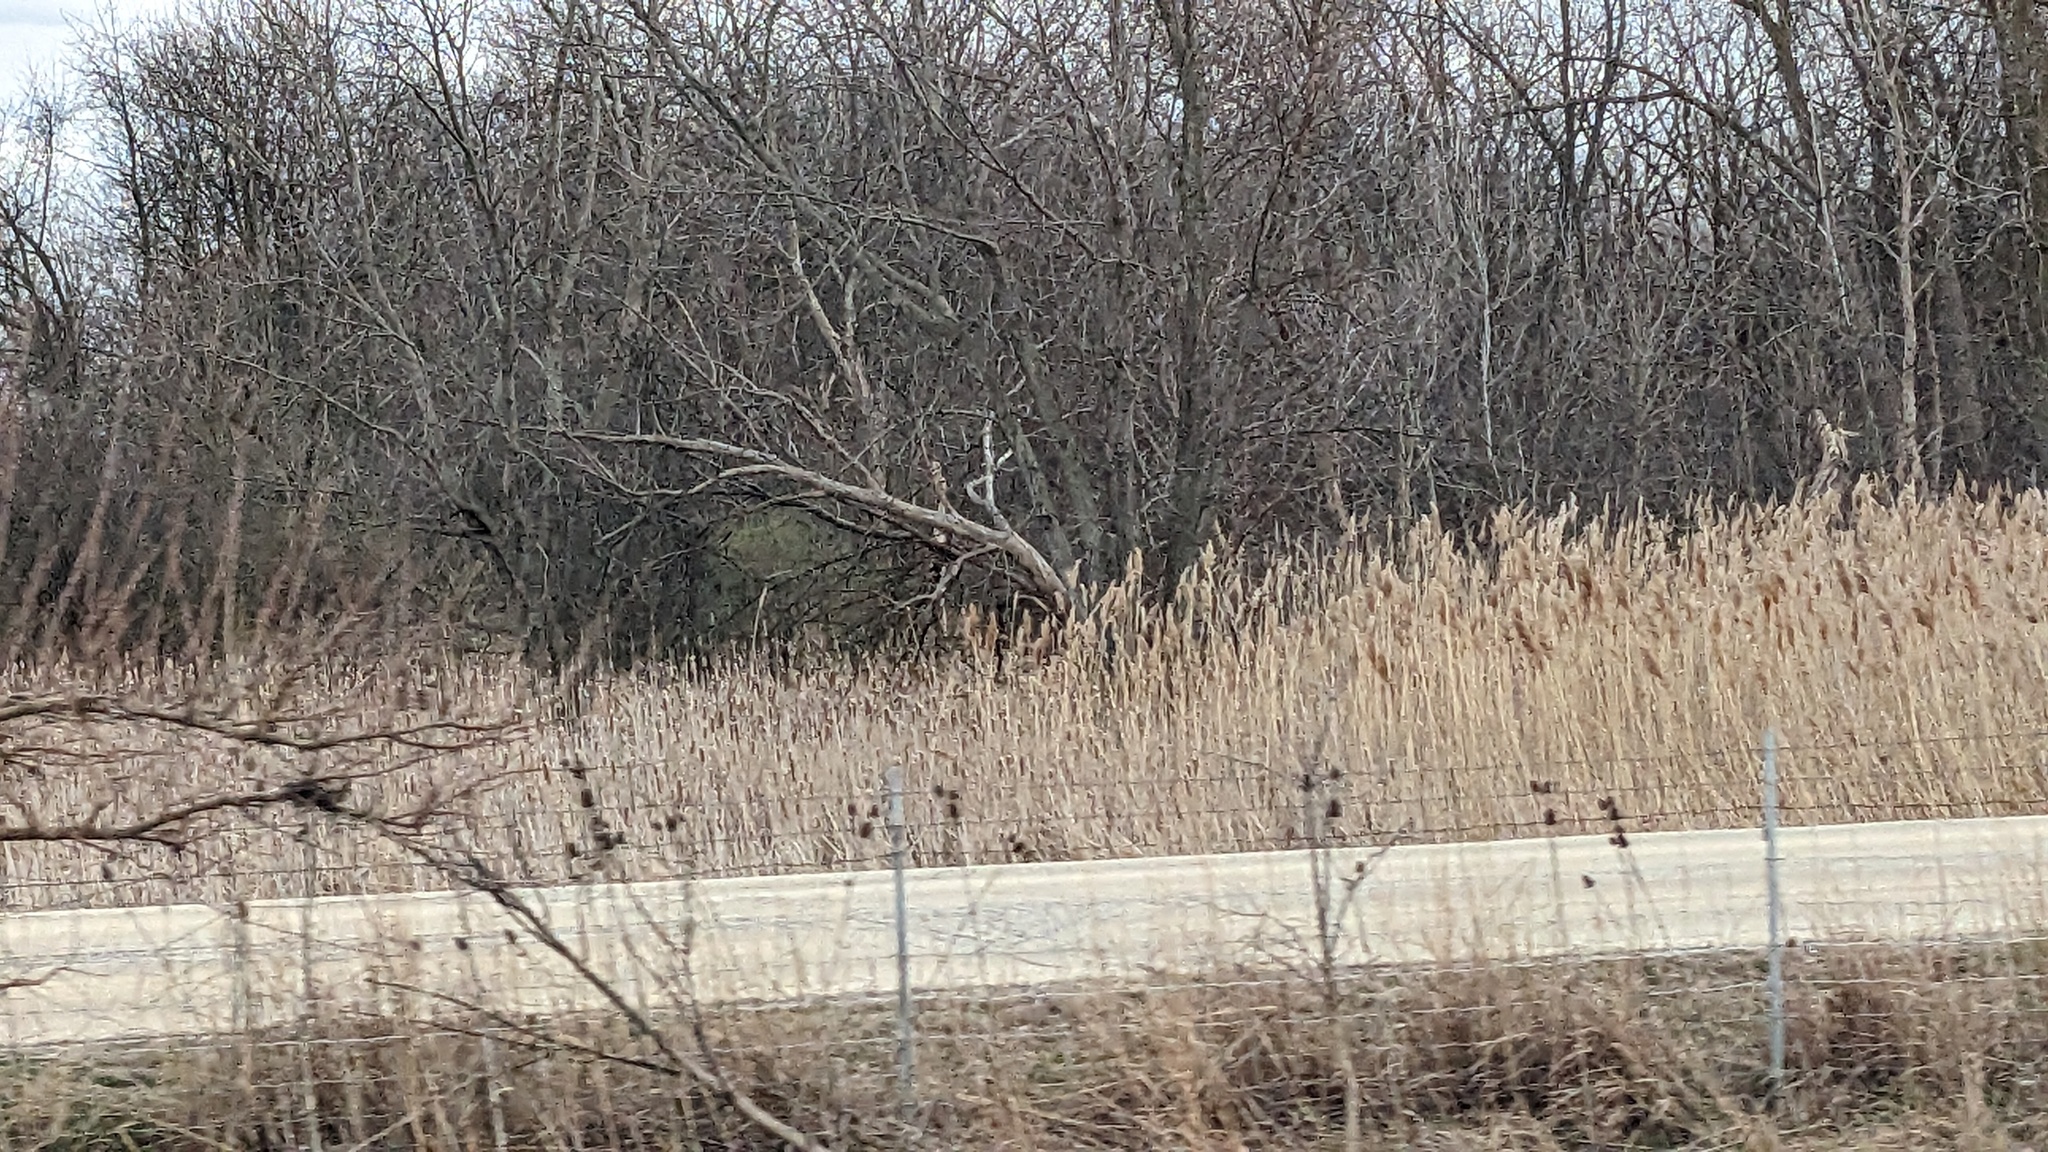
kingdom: Plantae
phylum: Tracheophyta
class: Liliopsida
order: Poales
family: Poaceae
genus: Phragmites
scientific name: Phragmites australis
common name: Common reed
